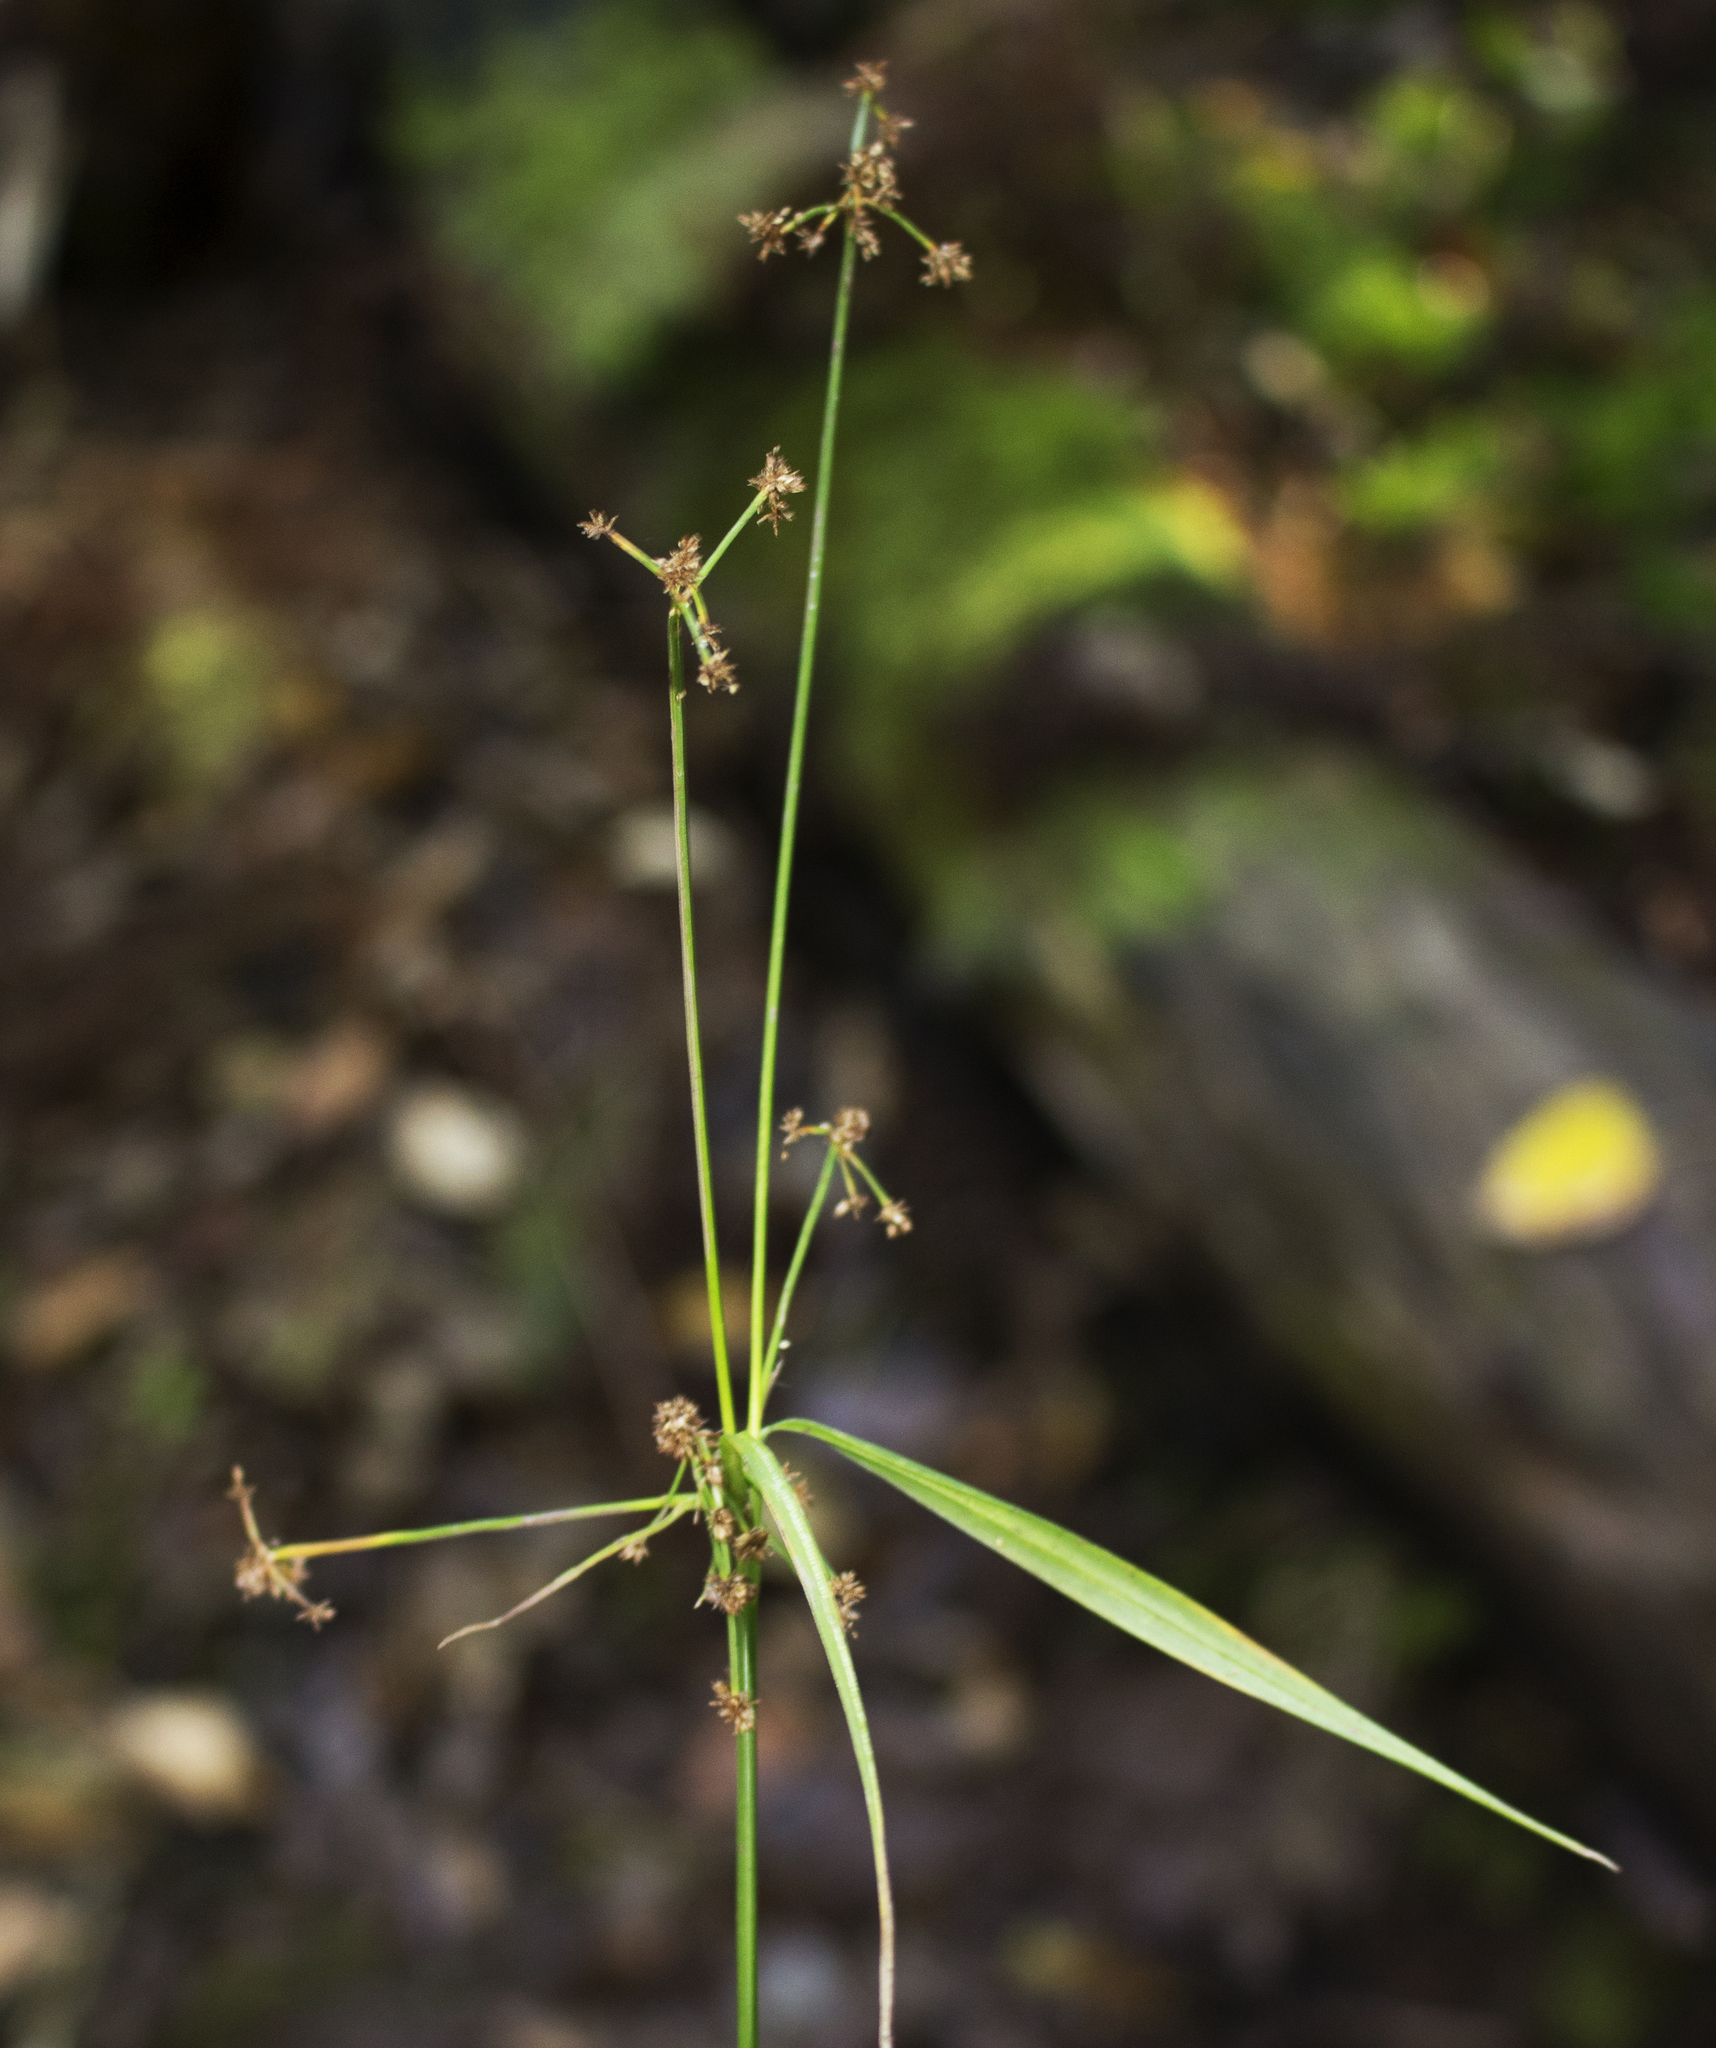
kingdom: Plantae
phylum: Tracheophyta
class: Liliopsida
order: Poales
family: Cyperaceae
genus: Scirpus
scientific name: Scirpus hattorianus
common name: Early dark-green bulrush
